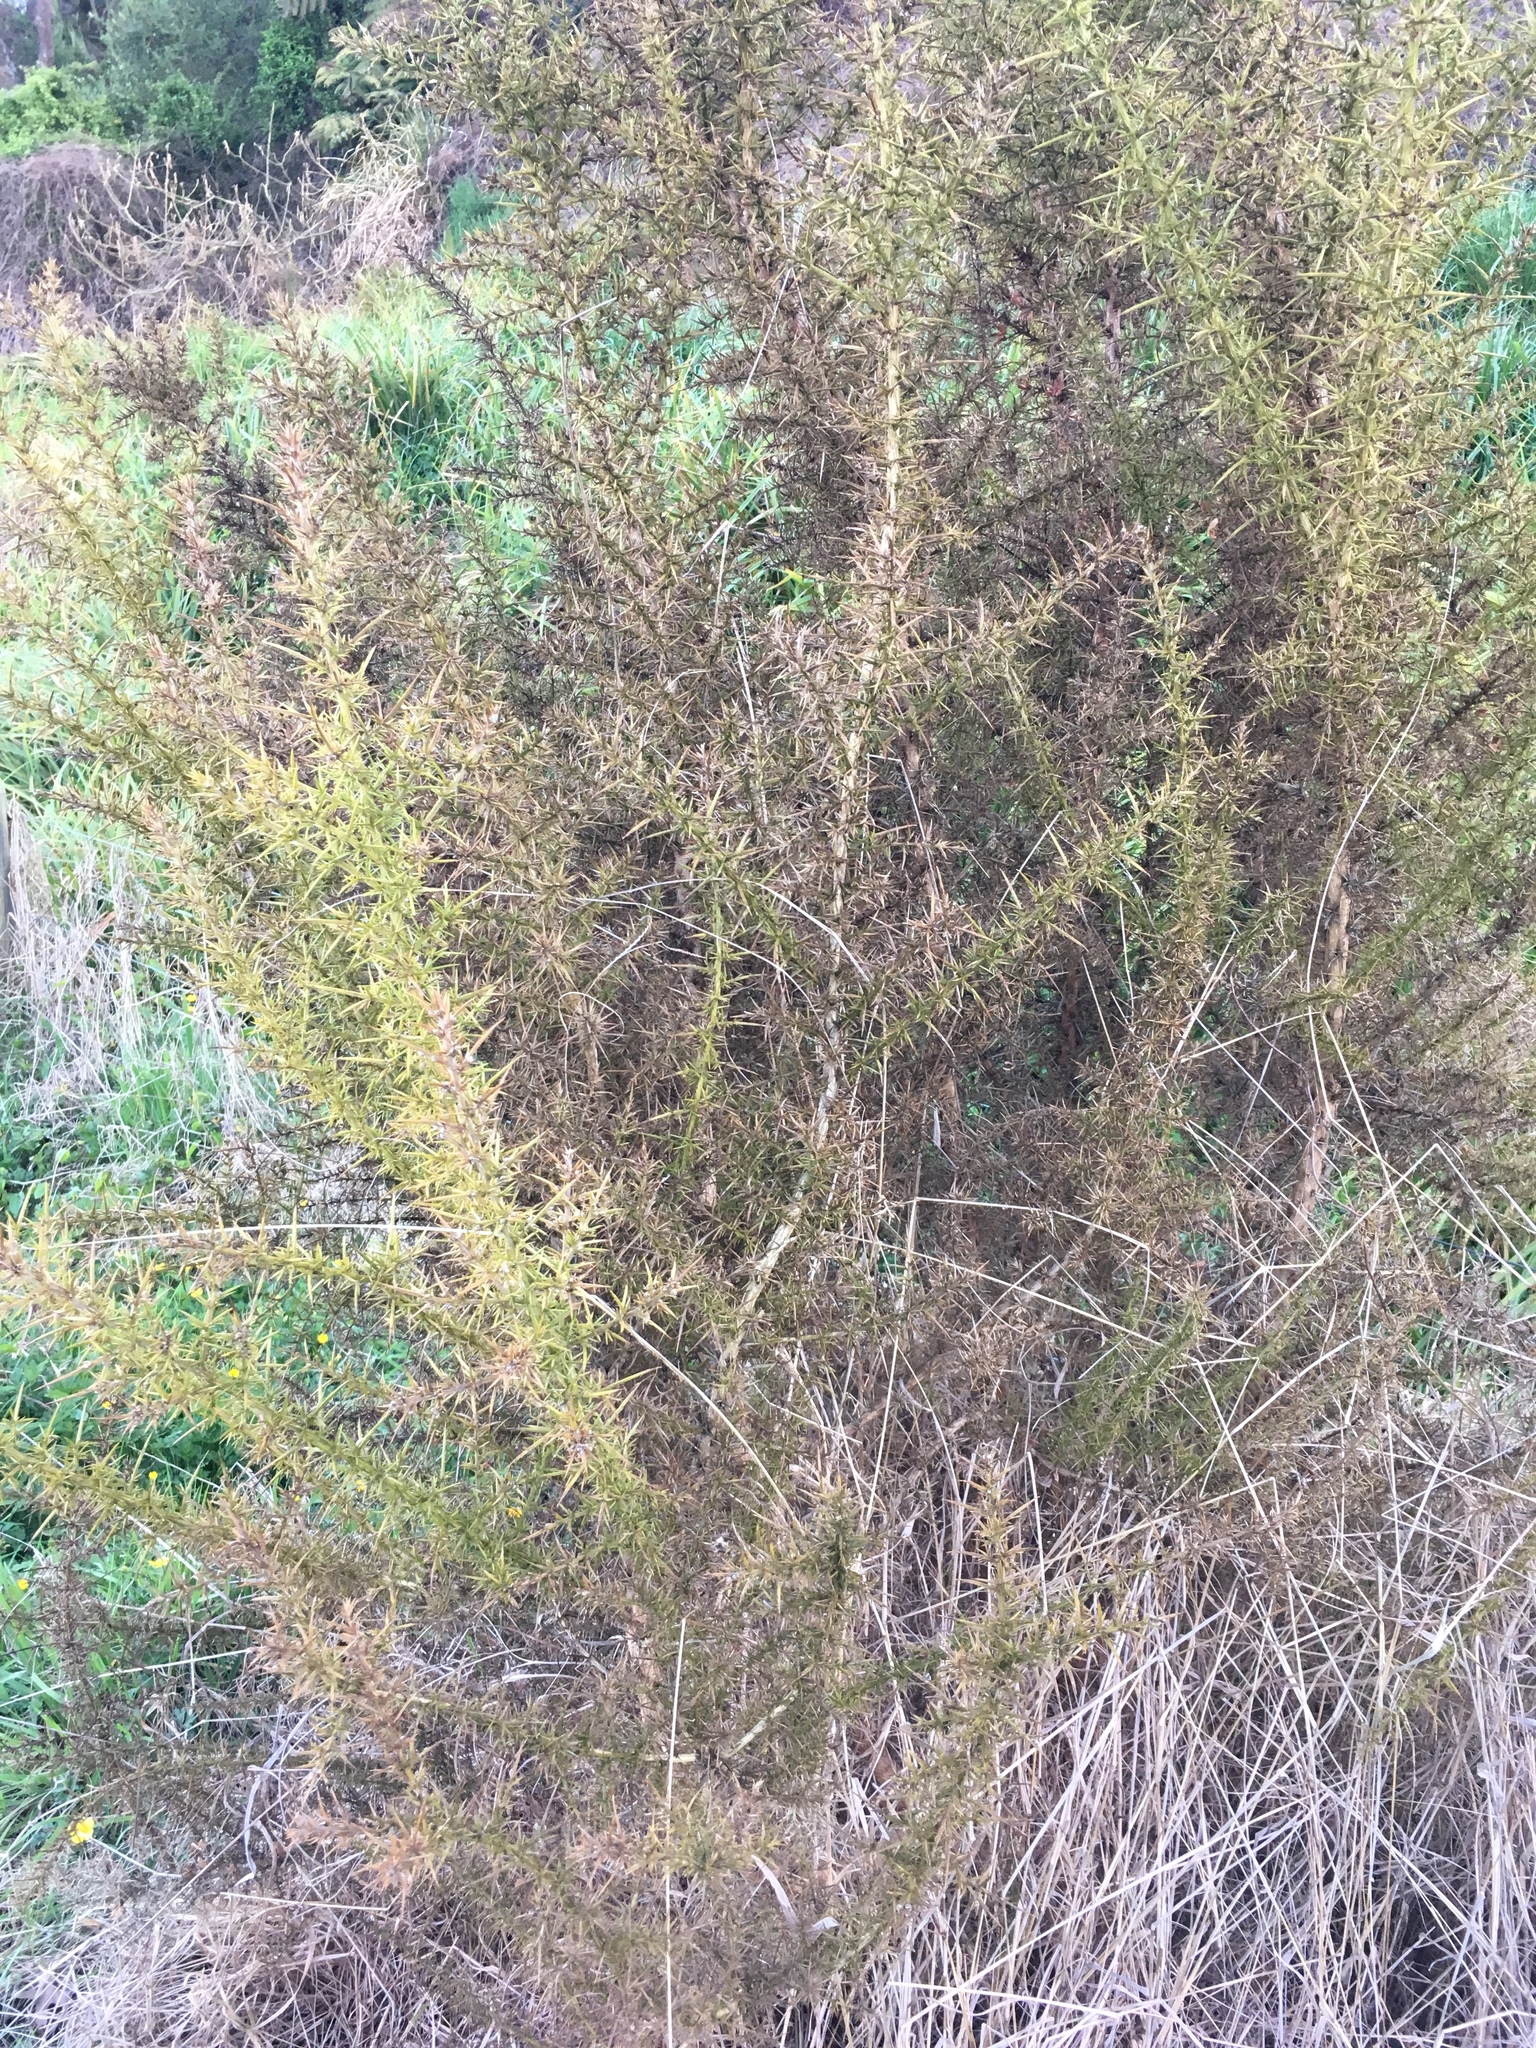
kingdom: Plantae
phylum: Tracheophyta
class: Magnoliopsida
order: Fabales
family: Fabaceae
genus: Ulex
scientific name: Ulex europaeus
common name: Common gorse
